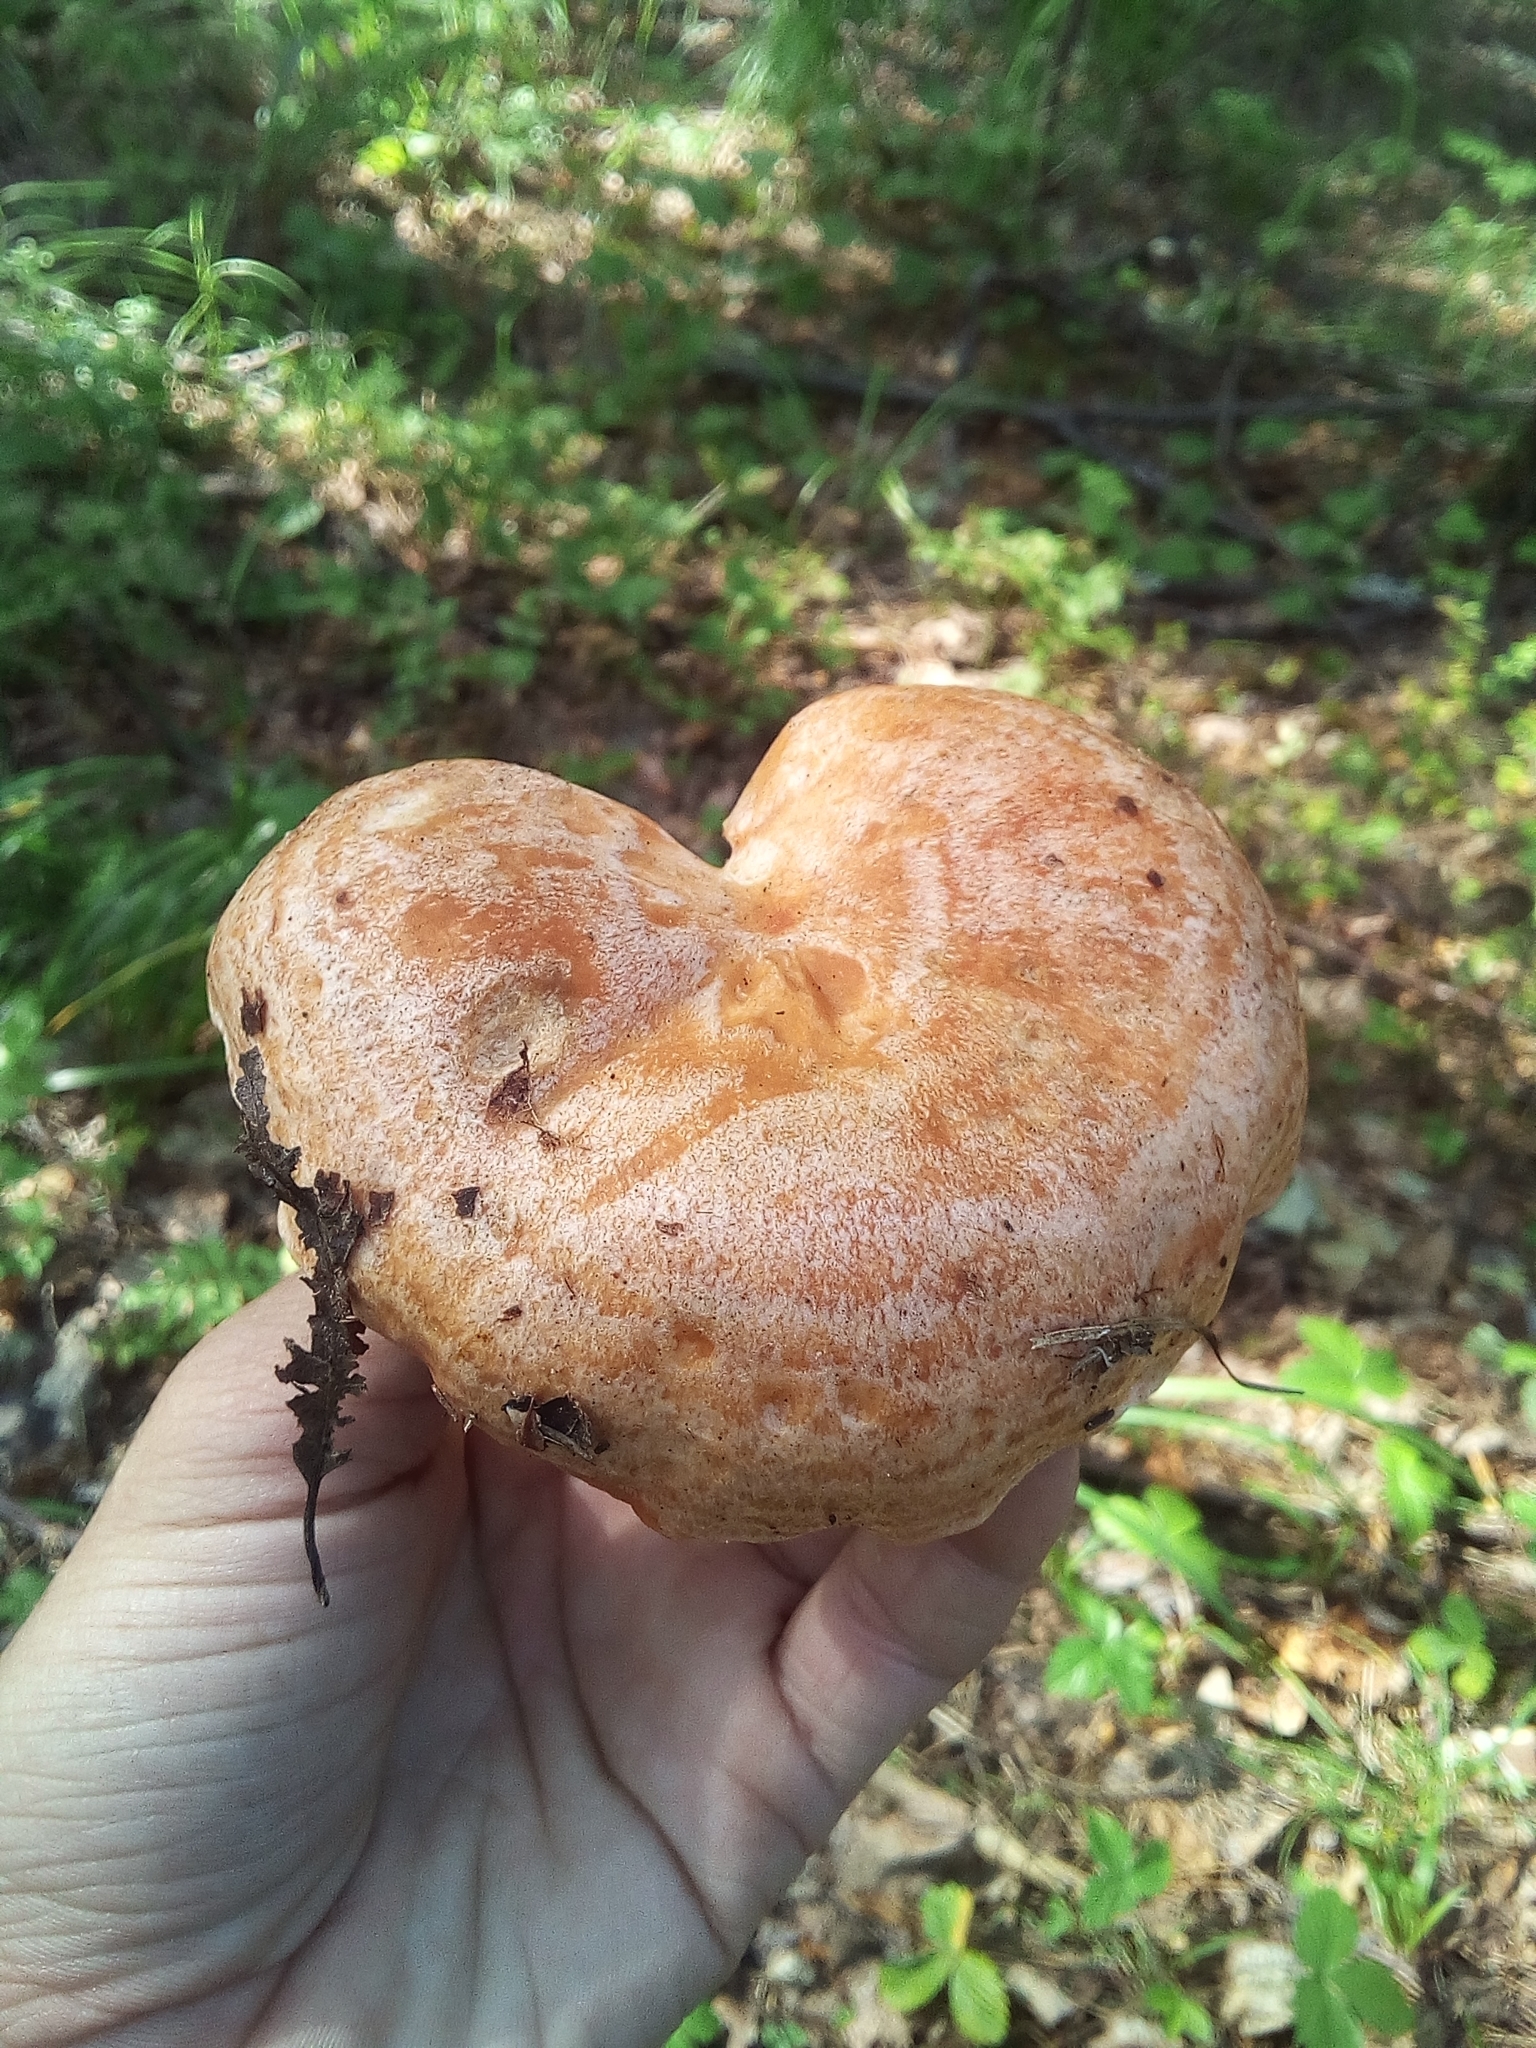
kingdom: Fungi
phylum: Basidiomycota
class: Agaricomycetes
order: Russulales
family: Russulaceae
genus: Lactarius
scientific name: Lactarius deliciosus
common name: Saffron milk-cap
